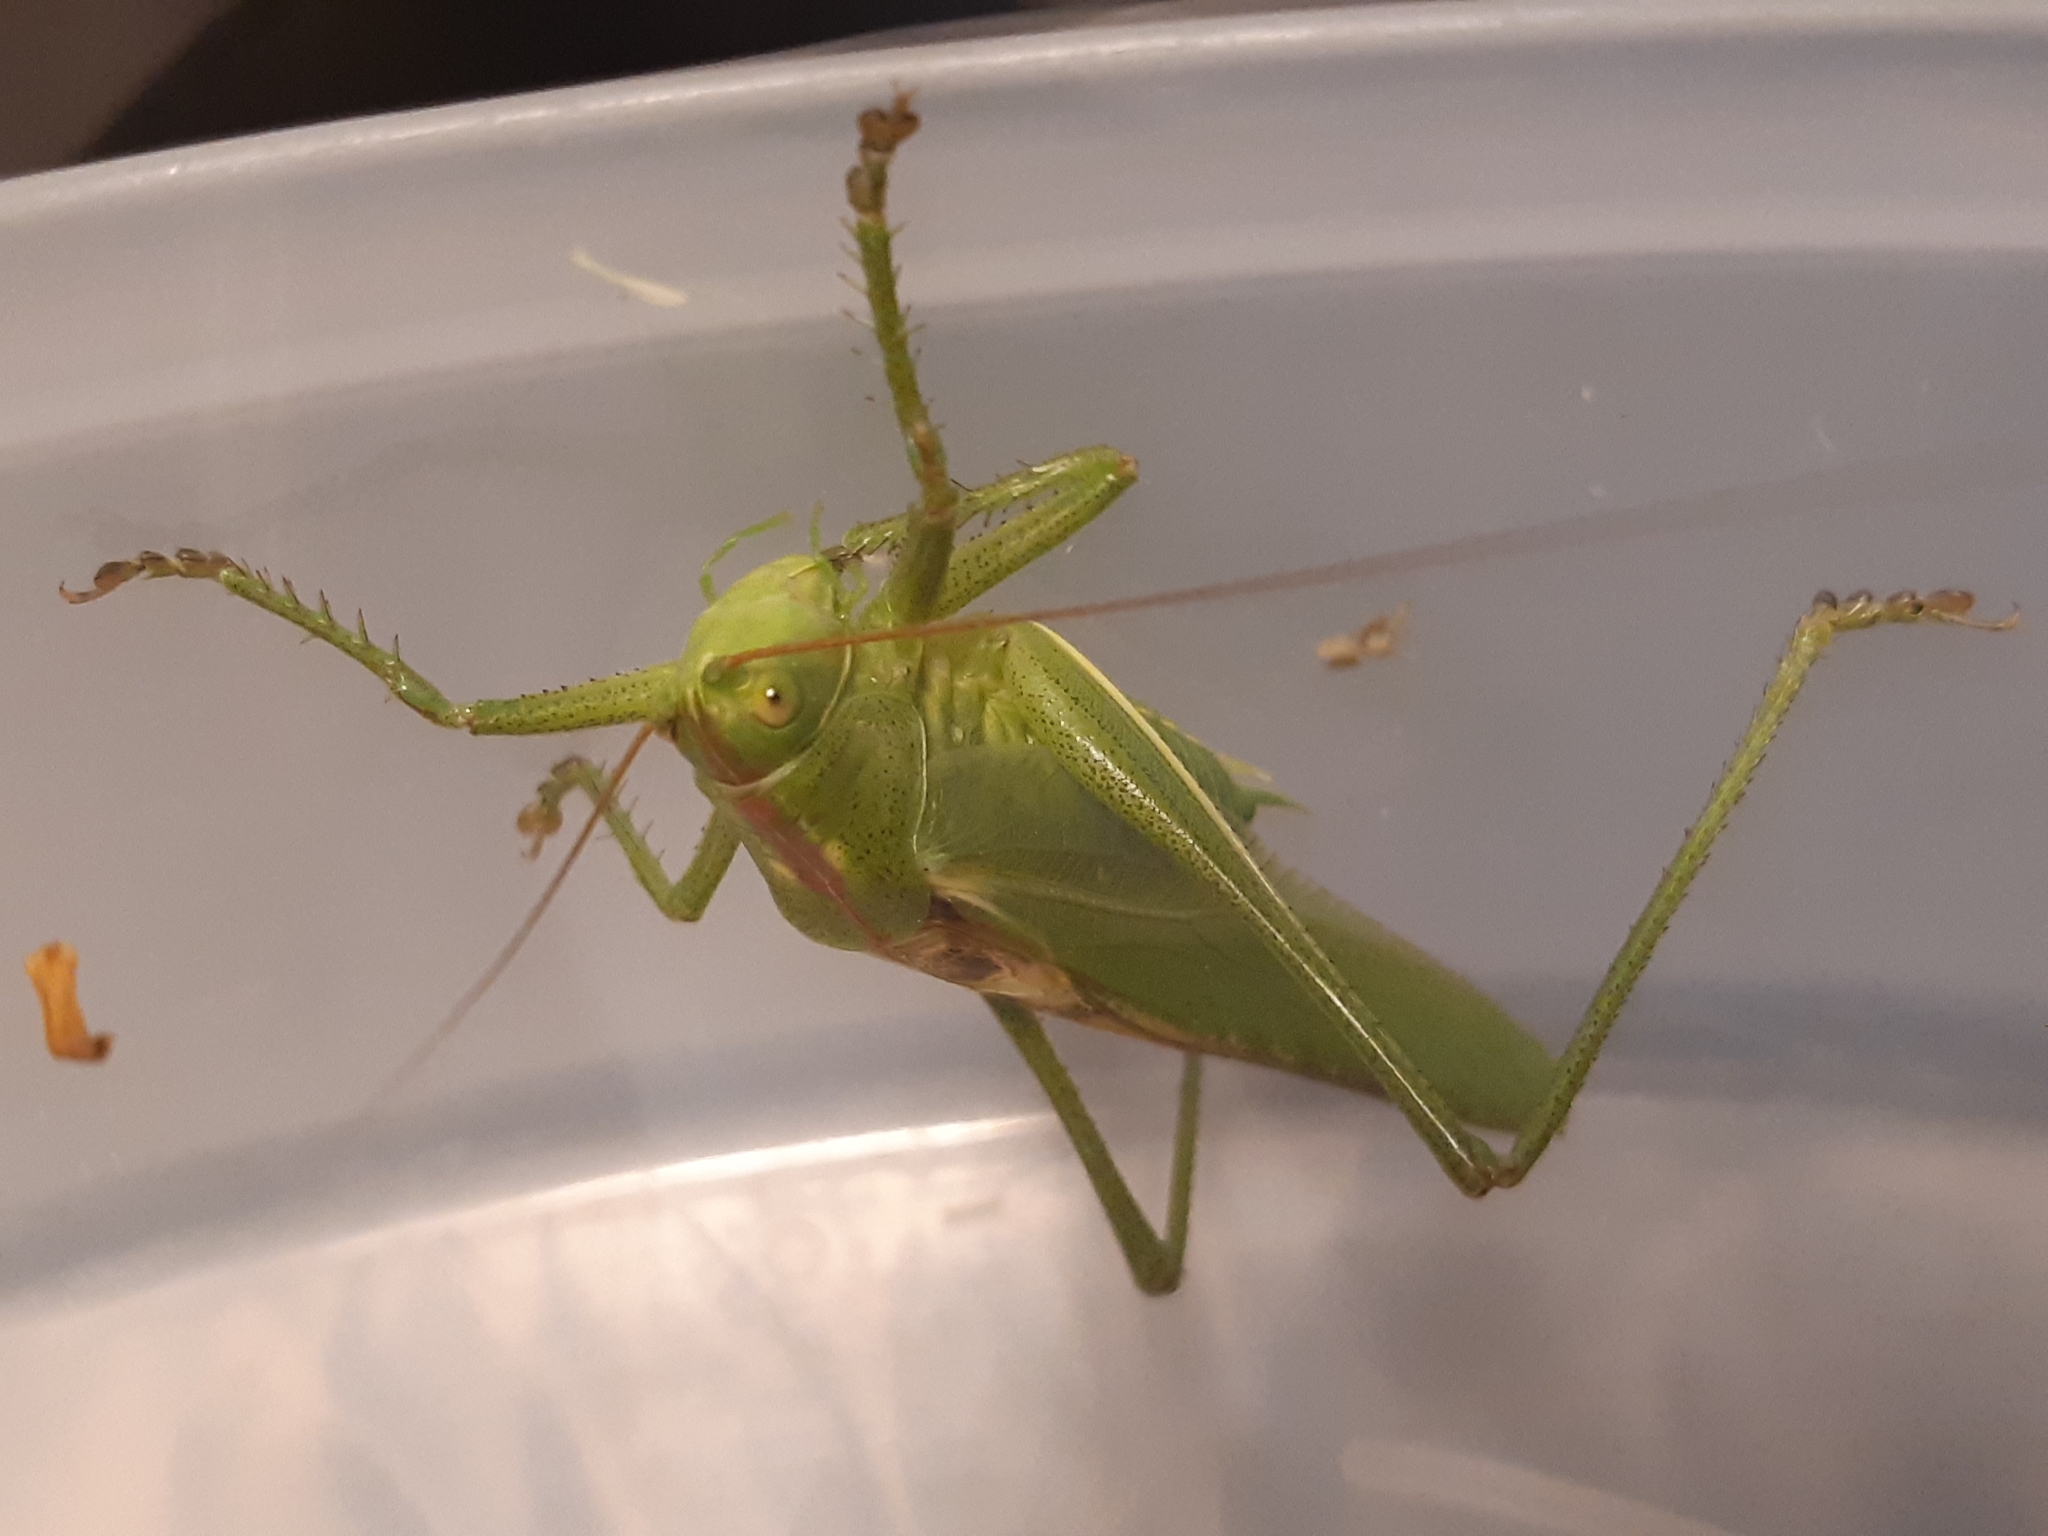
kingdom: Animalia
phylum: Arthropoda
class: Insecta
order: Orthoptera
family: Tettigoniidae
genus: Tettigonia
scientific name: Tettigonia viridissima
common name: Great green bush-cricket
